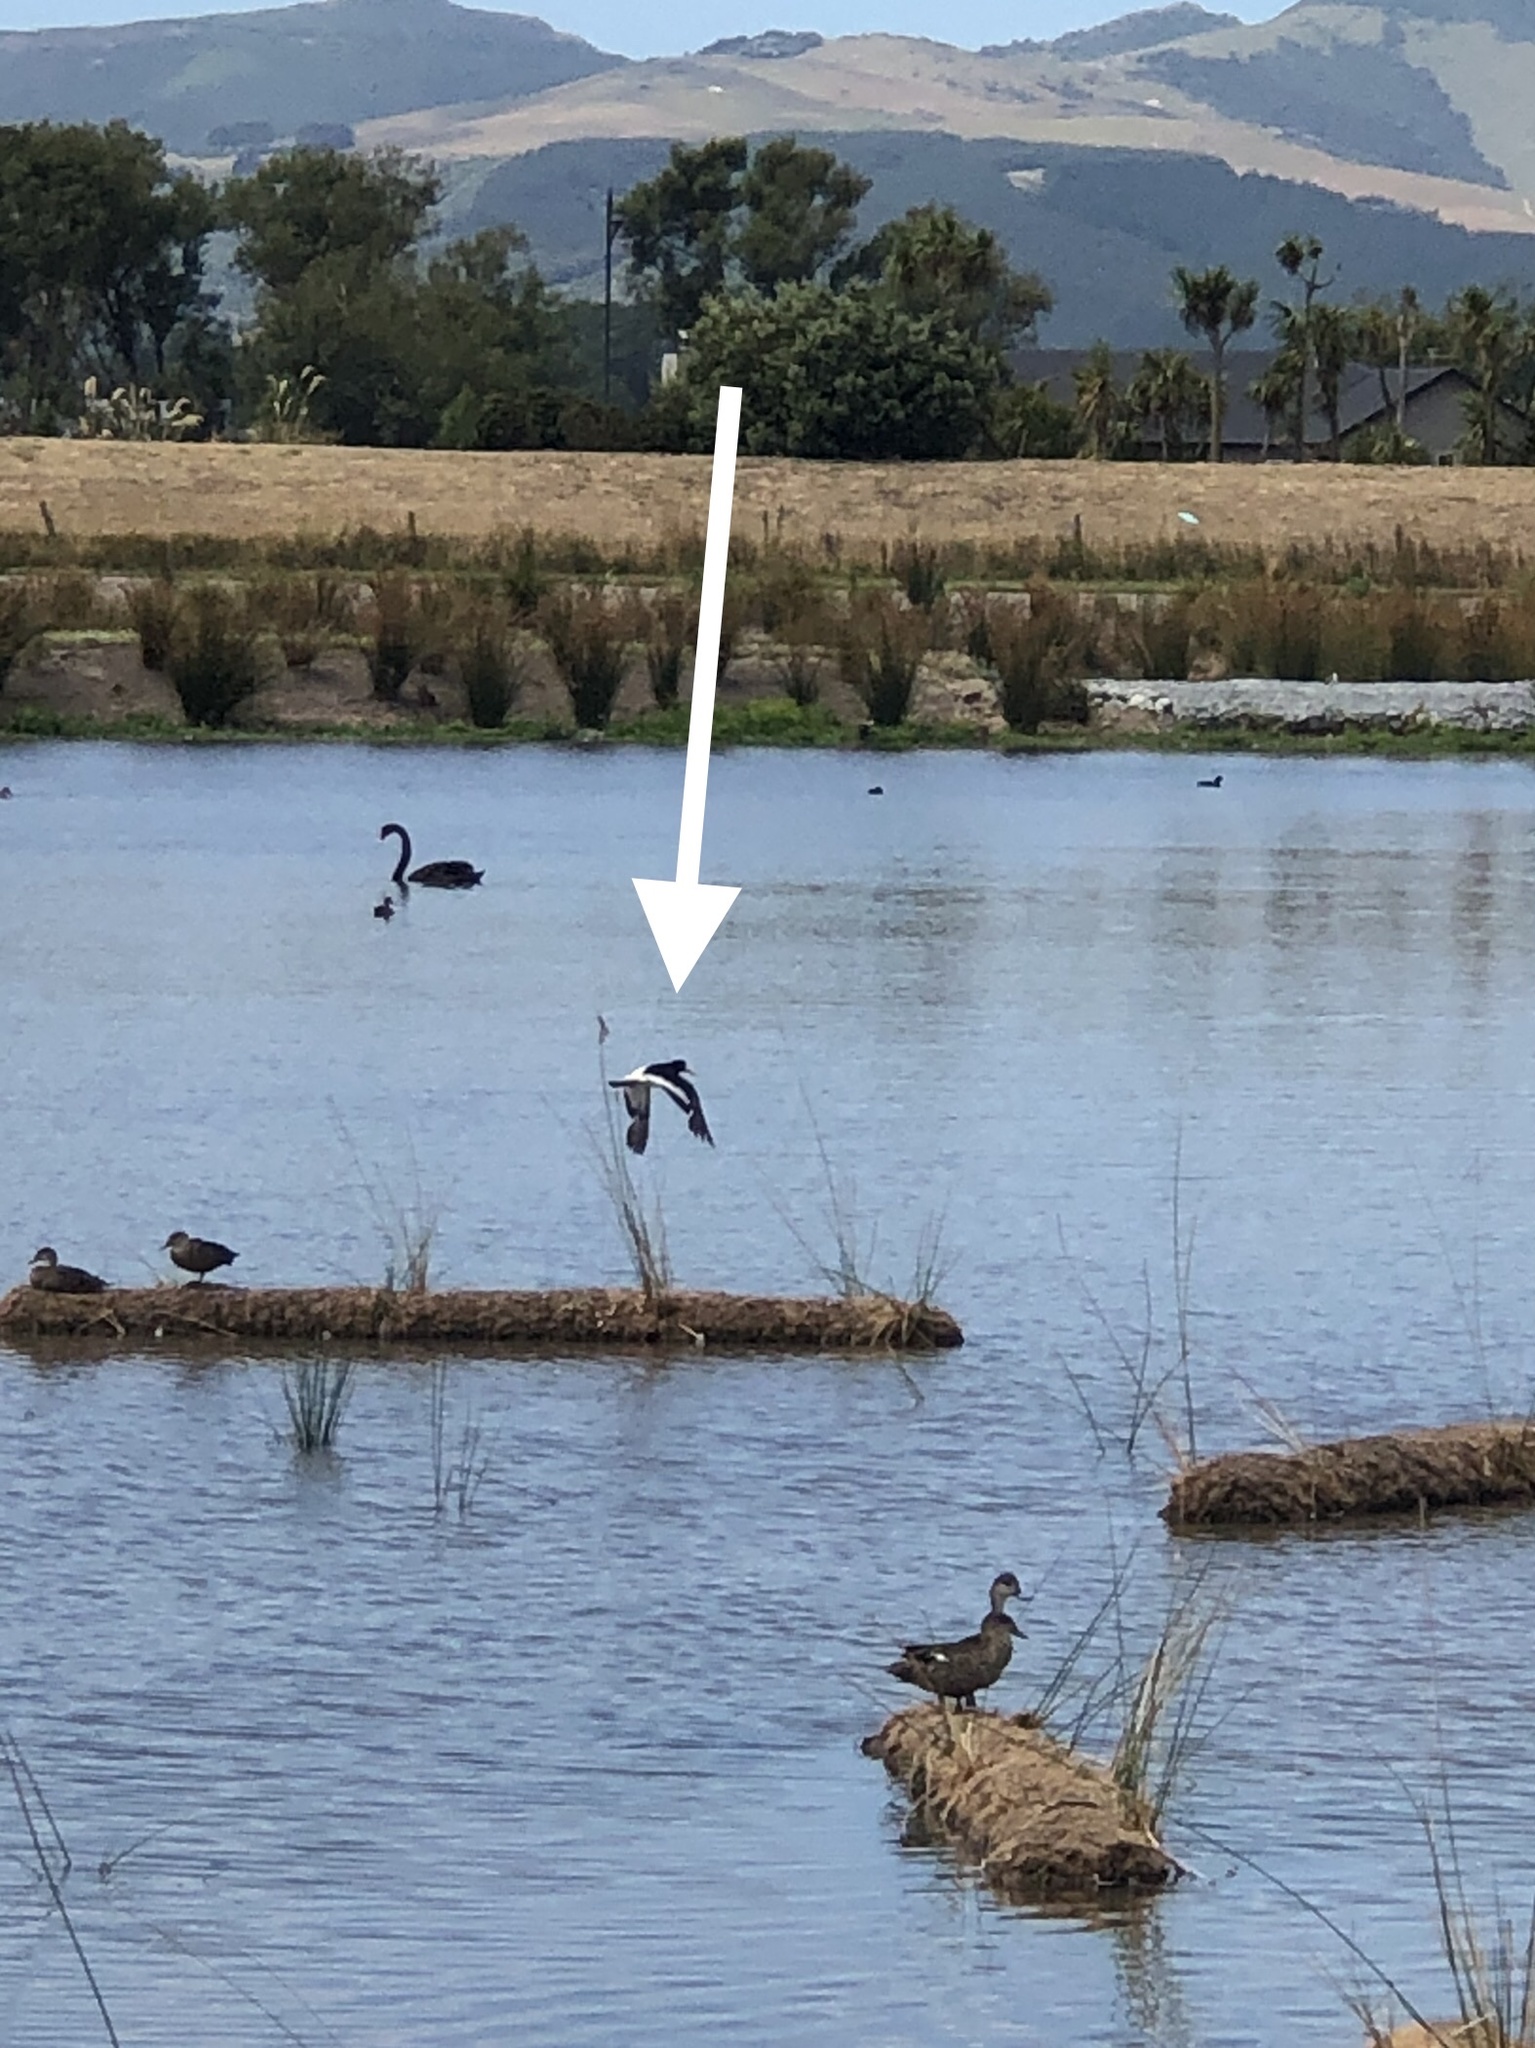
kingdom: Animalia
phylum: Chordata
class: Aves
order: Charadriiformes
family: Haematopodidae
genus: Haematopus
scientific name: Haematopus finschi
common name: South island oystercatcher
